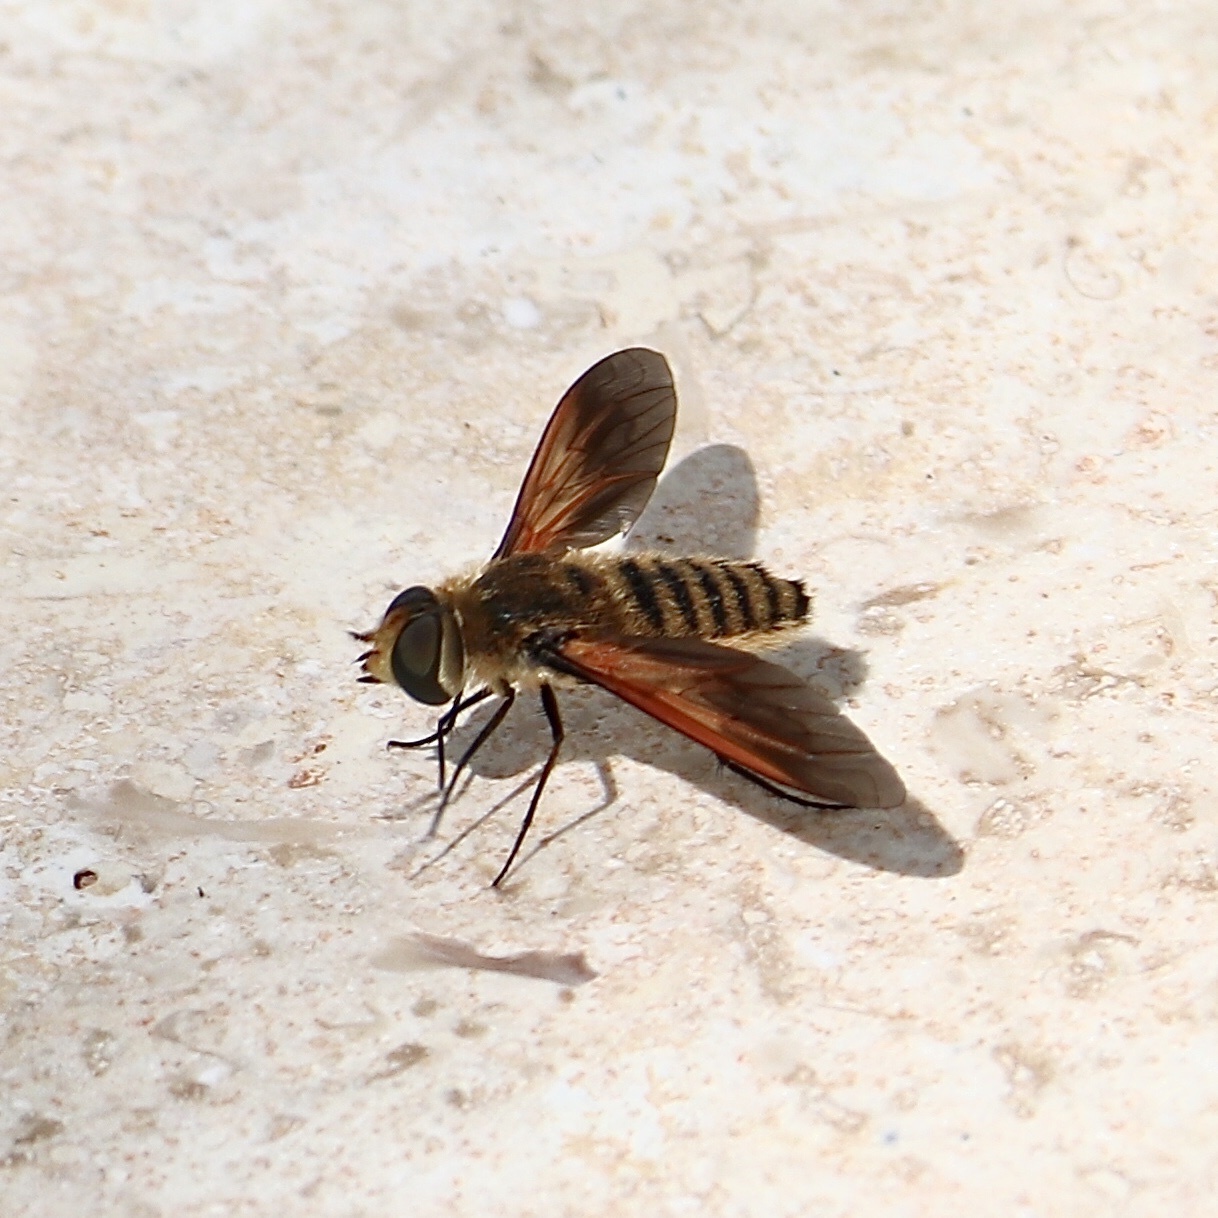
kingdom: Animalia
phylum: Arthropoda
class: Insecta
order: Diptera
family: Bombyliidae
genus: Poecilanthrax
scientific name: Poecilanthrax lucifer
